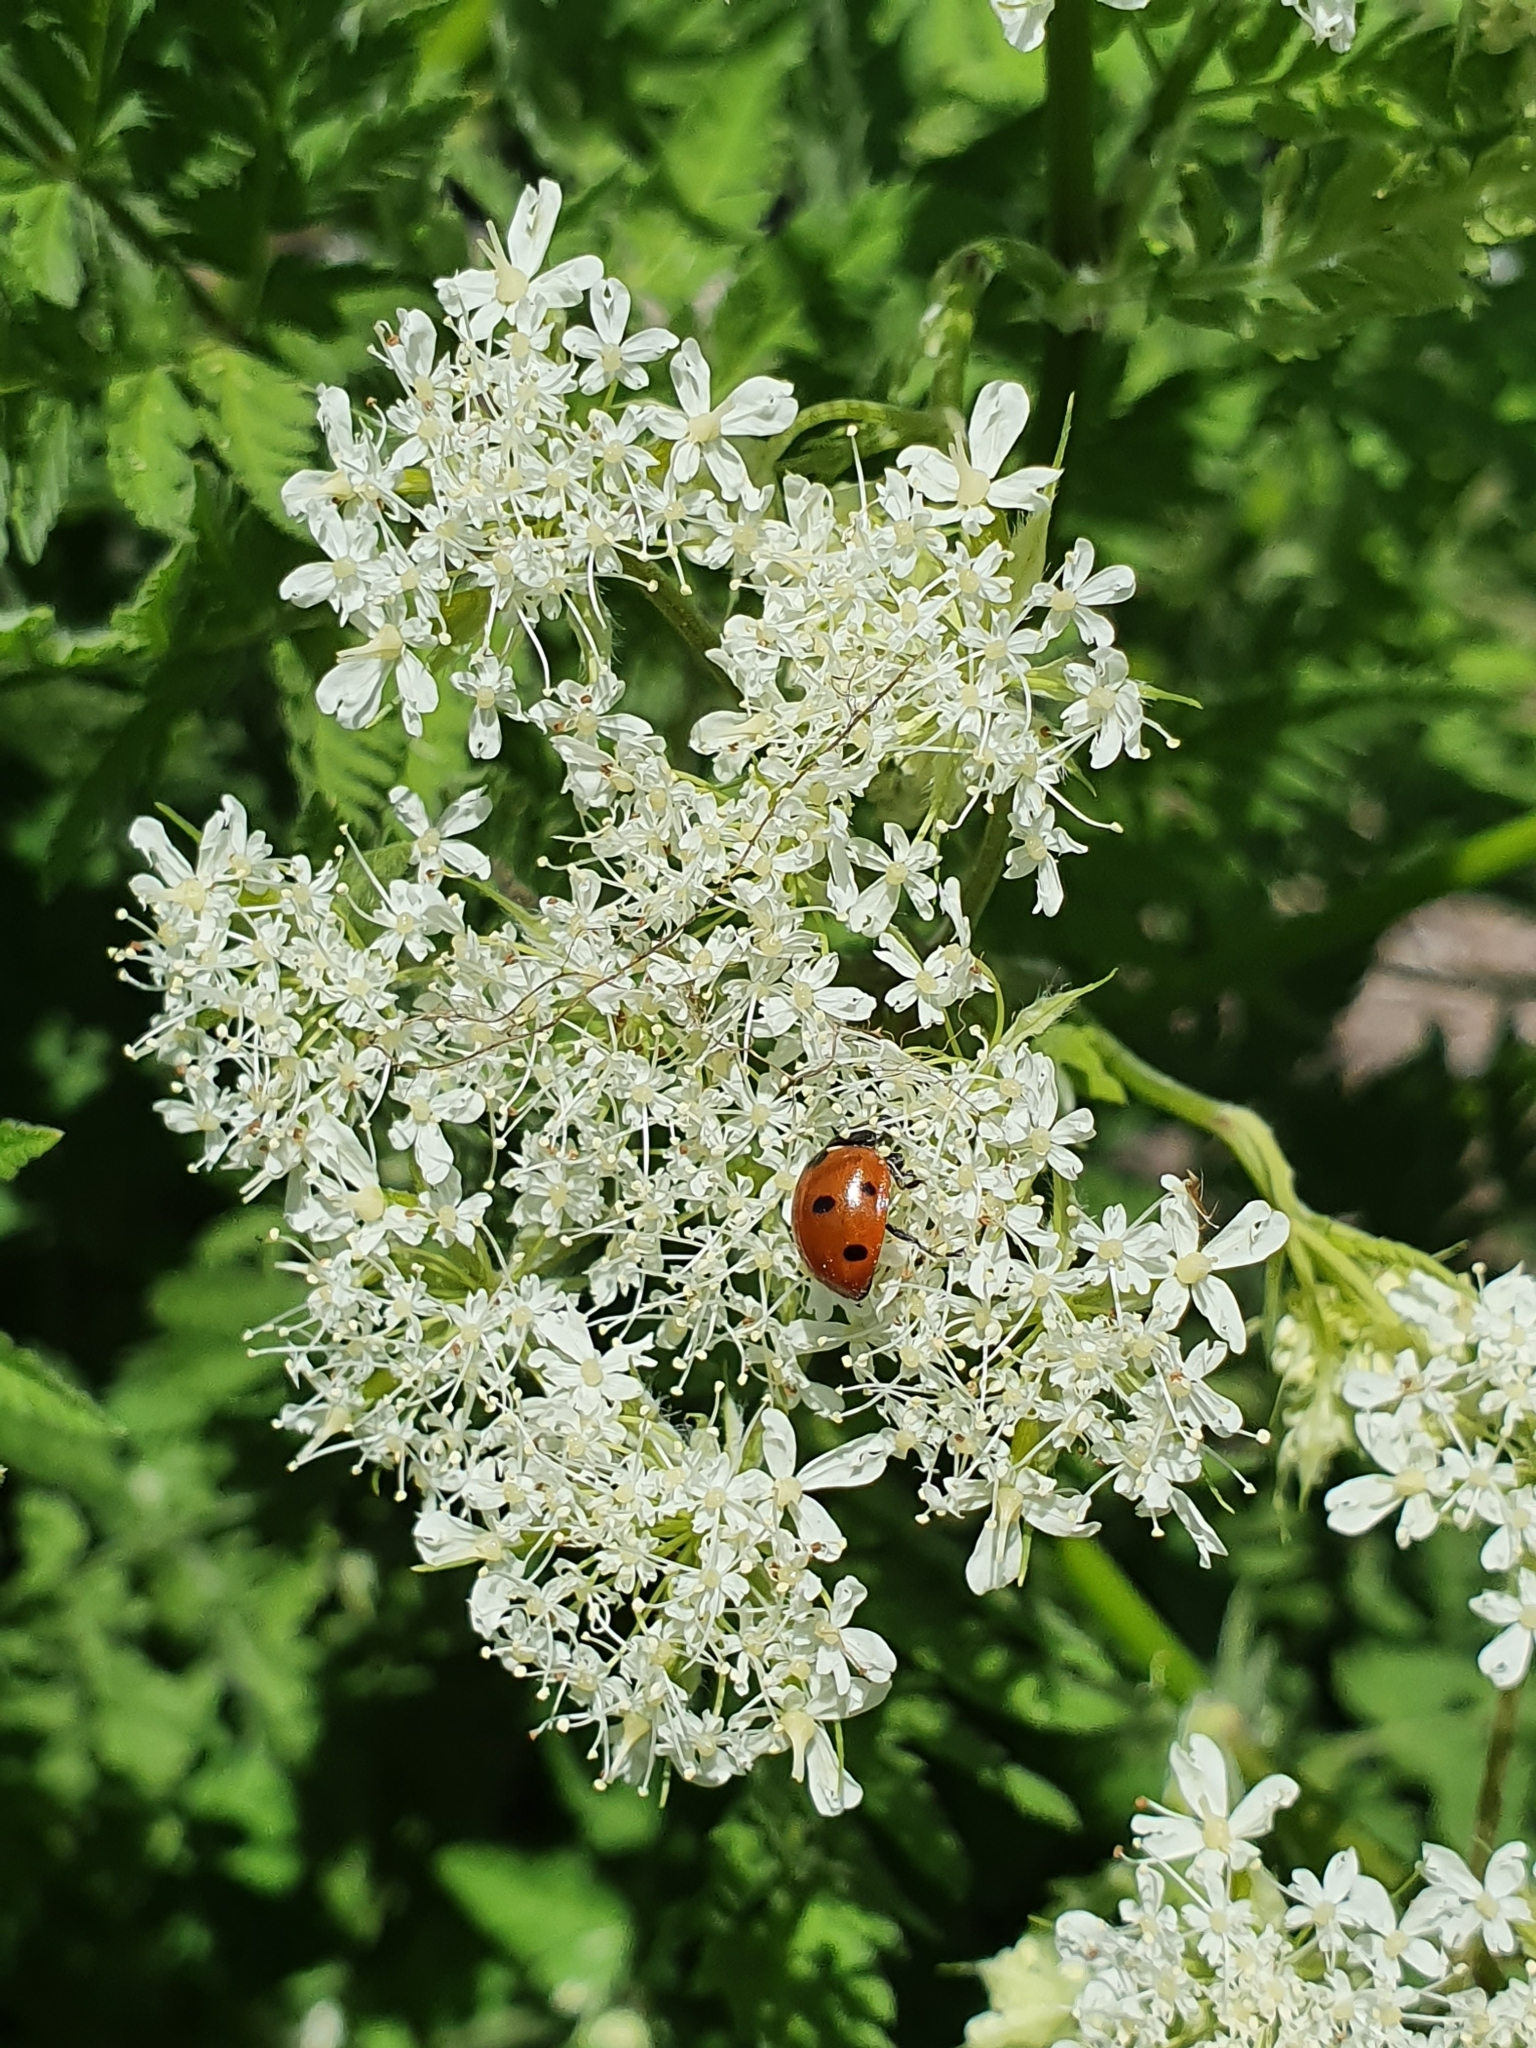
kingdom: Animalia
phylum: Arthropoda
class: Insecta
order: Coleoptera
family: Coccinellidae
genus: Coccinella
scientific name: Coccinella septempunctata
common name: Sevenspotted lady beetle
